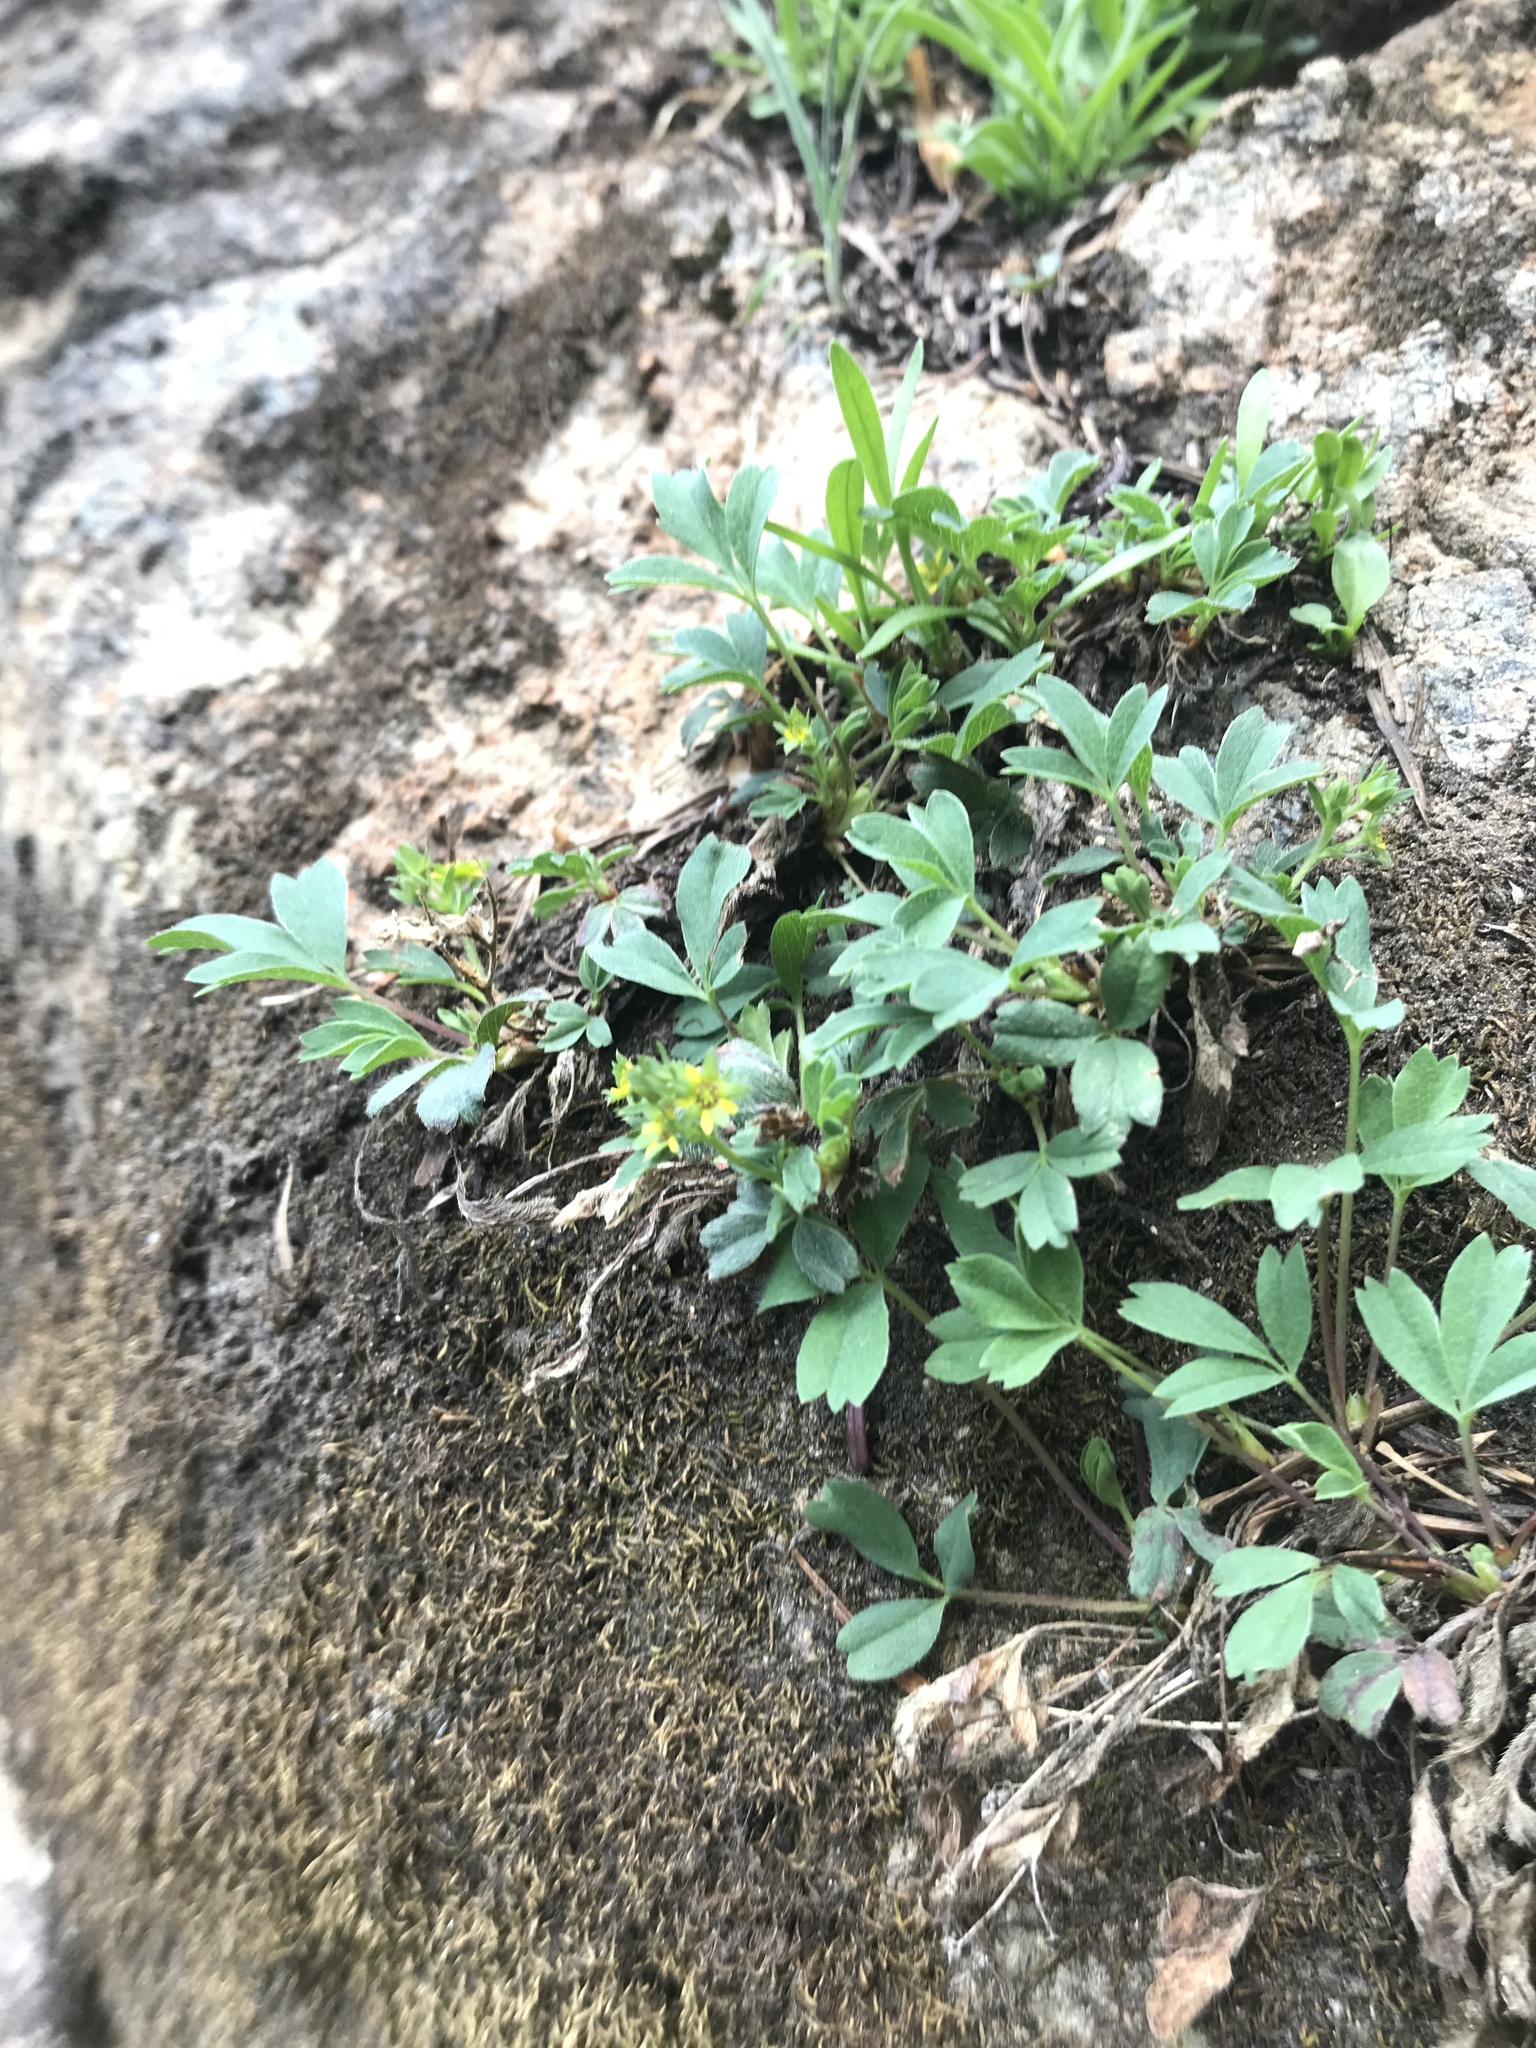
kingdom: Plantae
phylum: Tracheophyta
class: Magnoliopsida
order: Rosales
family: Rosaceae
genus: Sibbaldia
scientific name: Sibbaldia procumbens
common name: Creeping sibbaldia
